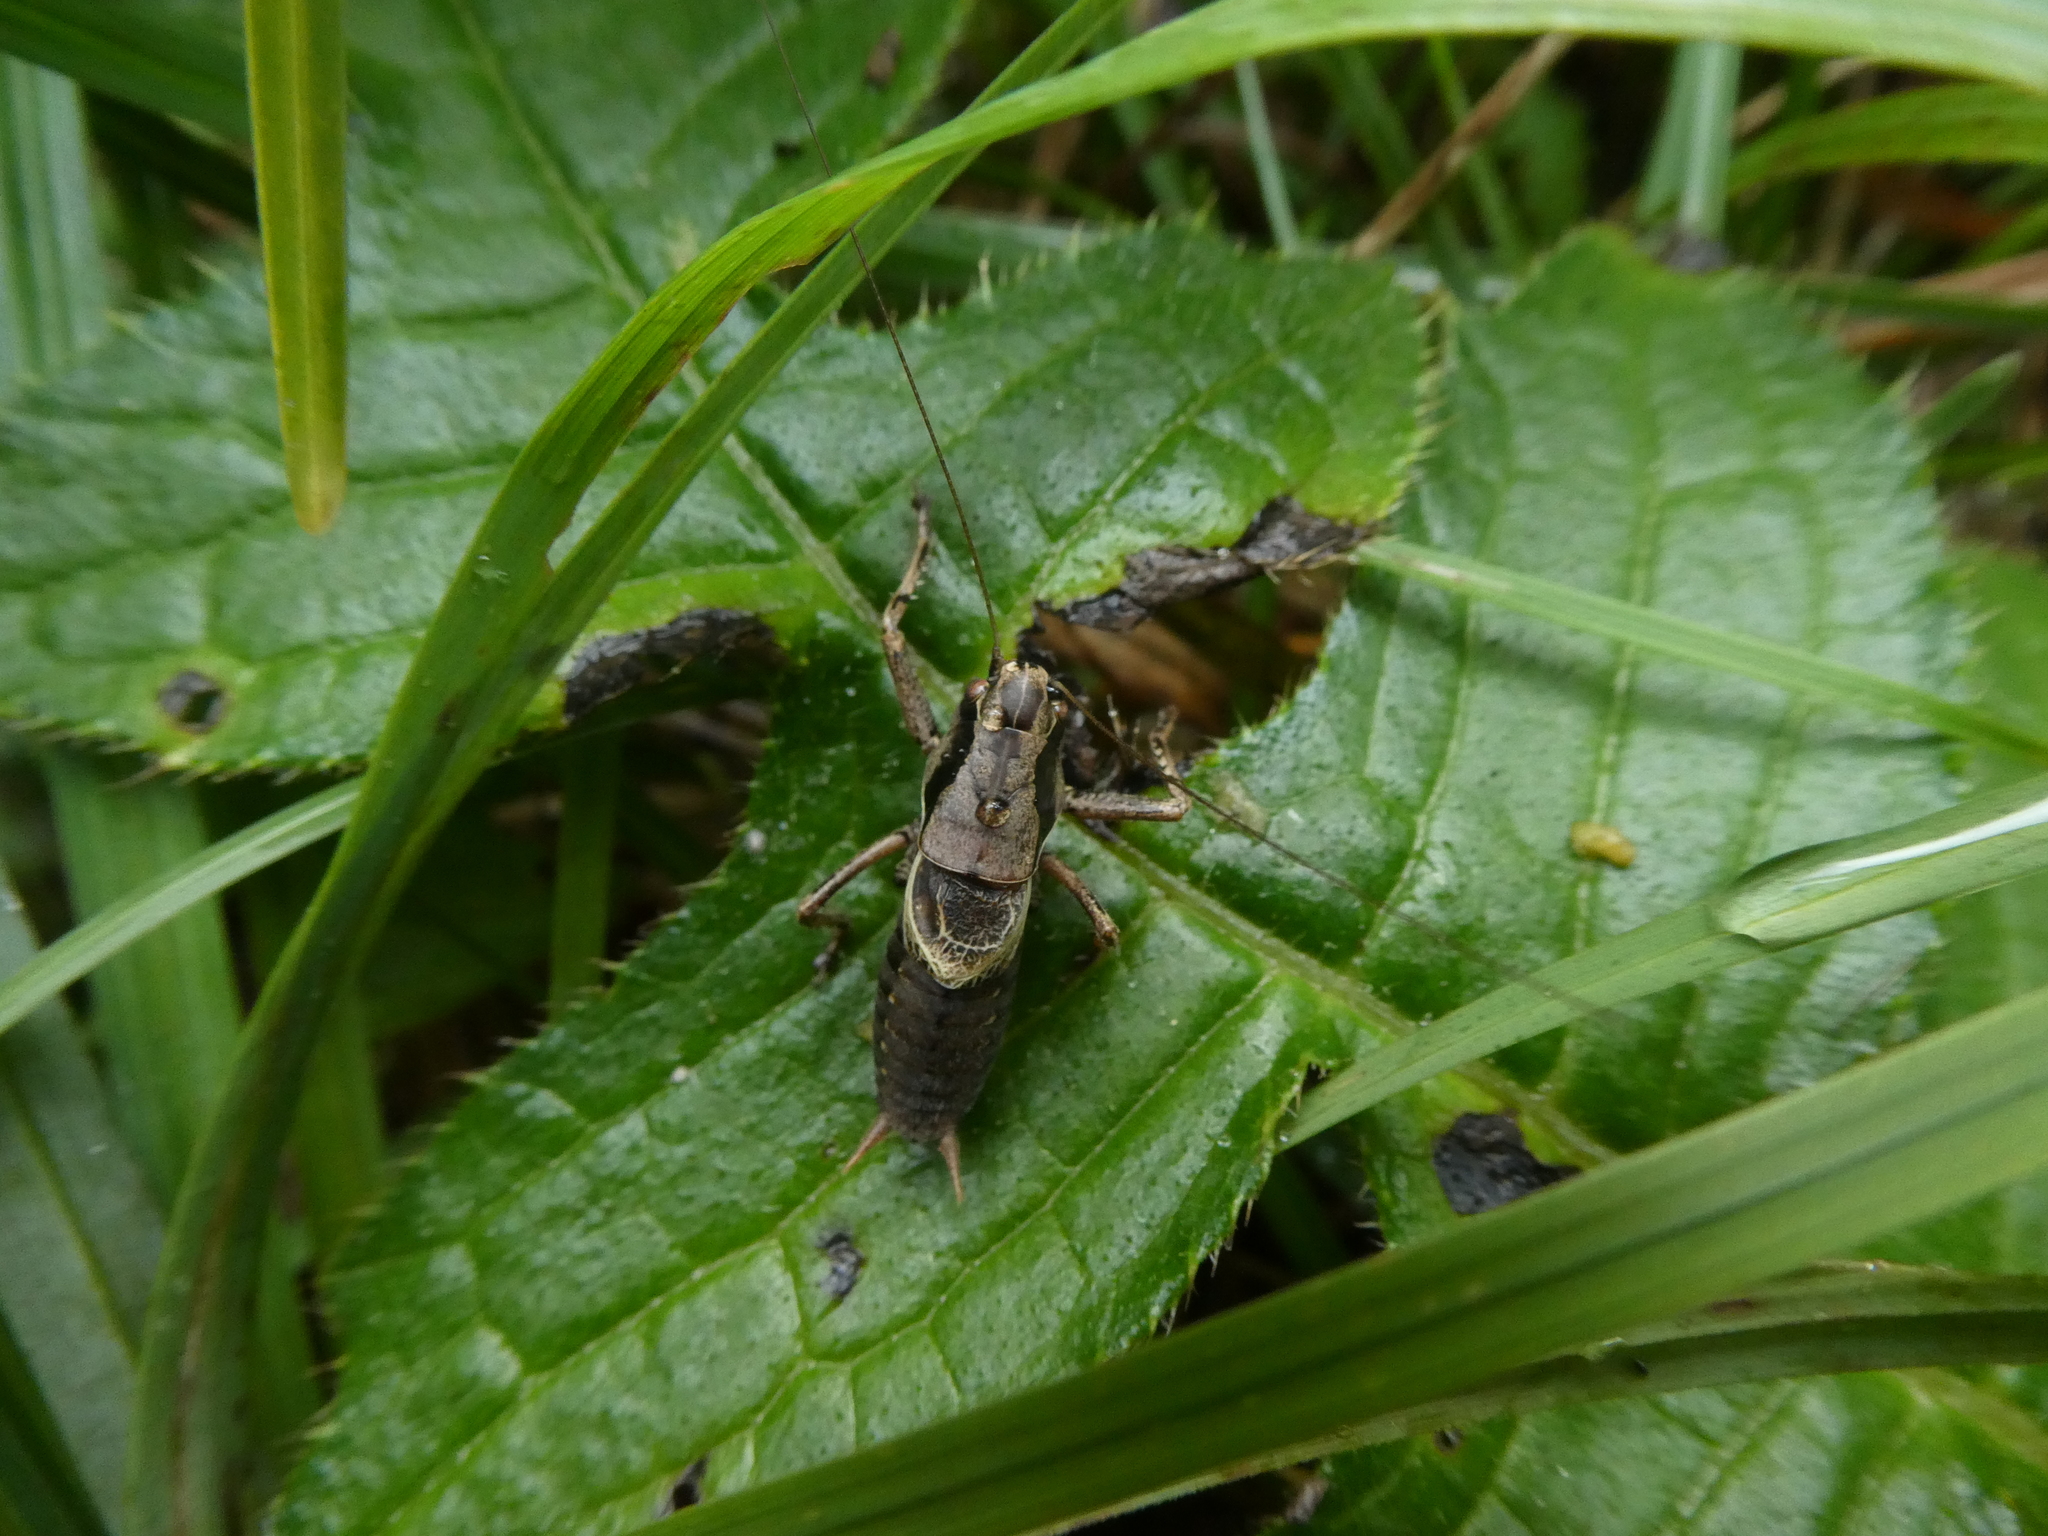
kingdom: Animalia
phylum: Arthropoda
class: Insecta
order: Orthoptera
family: Tettigoniidae
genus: Pholidoptera
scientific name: Pholidoptera griseoaptera
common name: Dark bush-cricket
